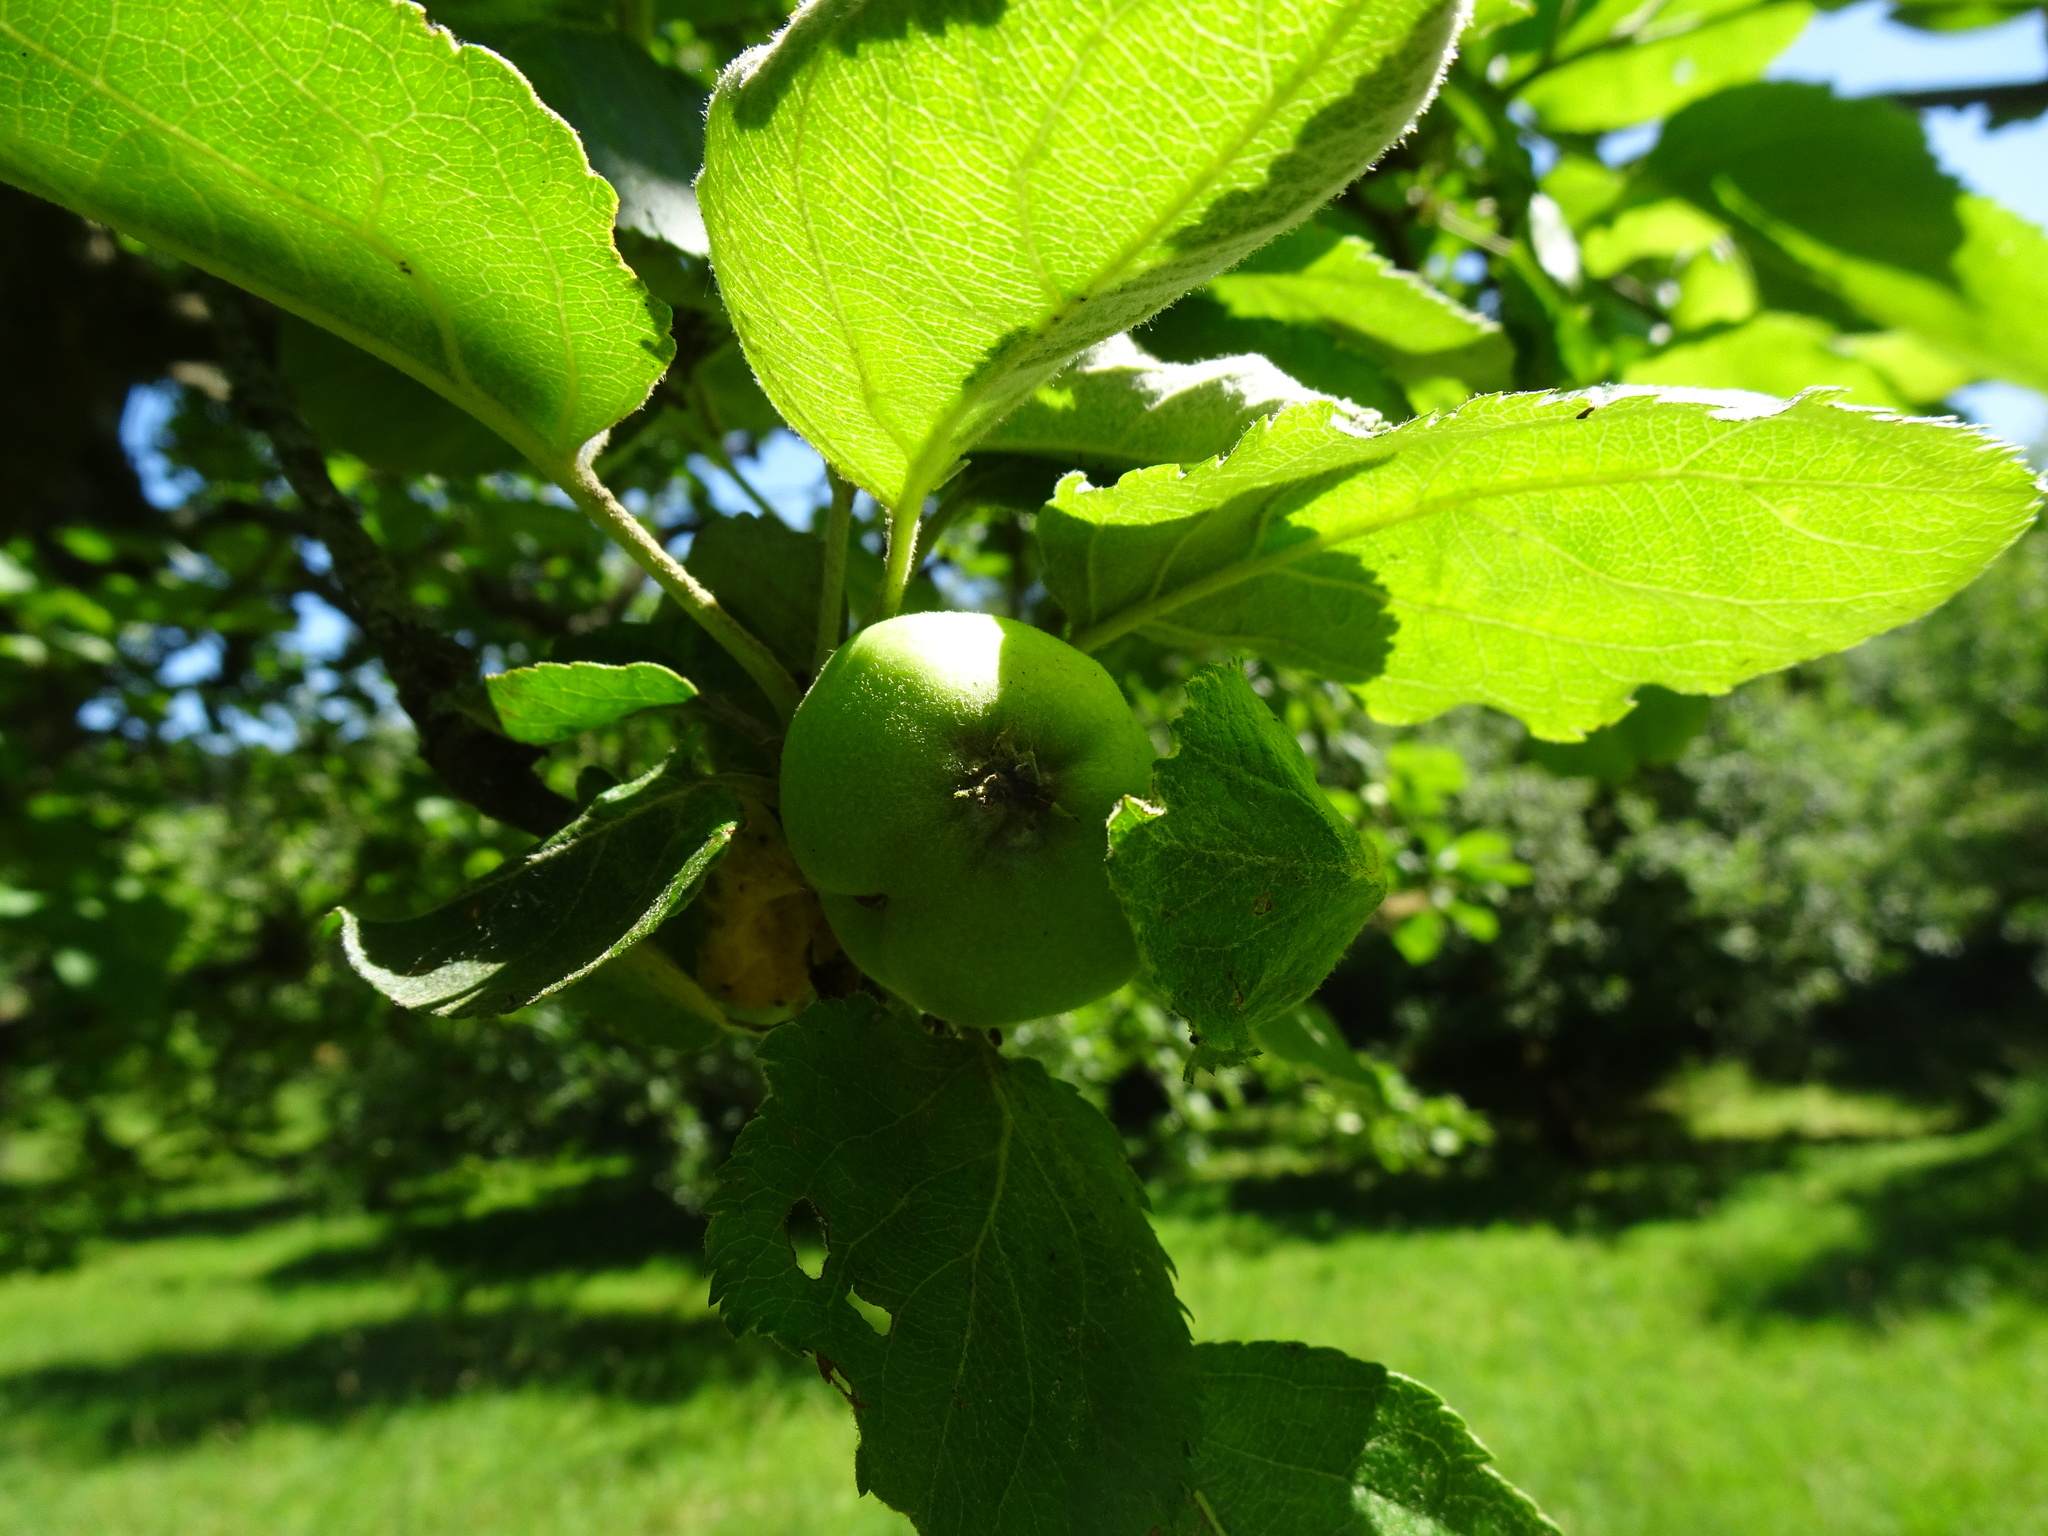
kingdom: Plantae
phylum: Tracheophyta
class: Magnoliopsida
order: Rosales
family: Rosaceae
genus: Malus
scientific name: Malus domestica
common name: Apple
